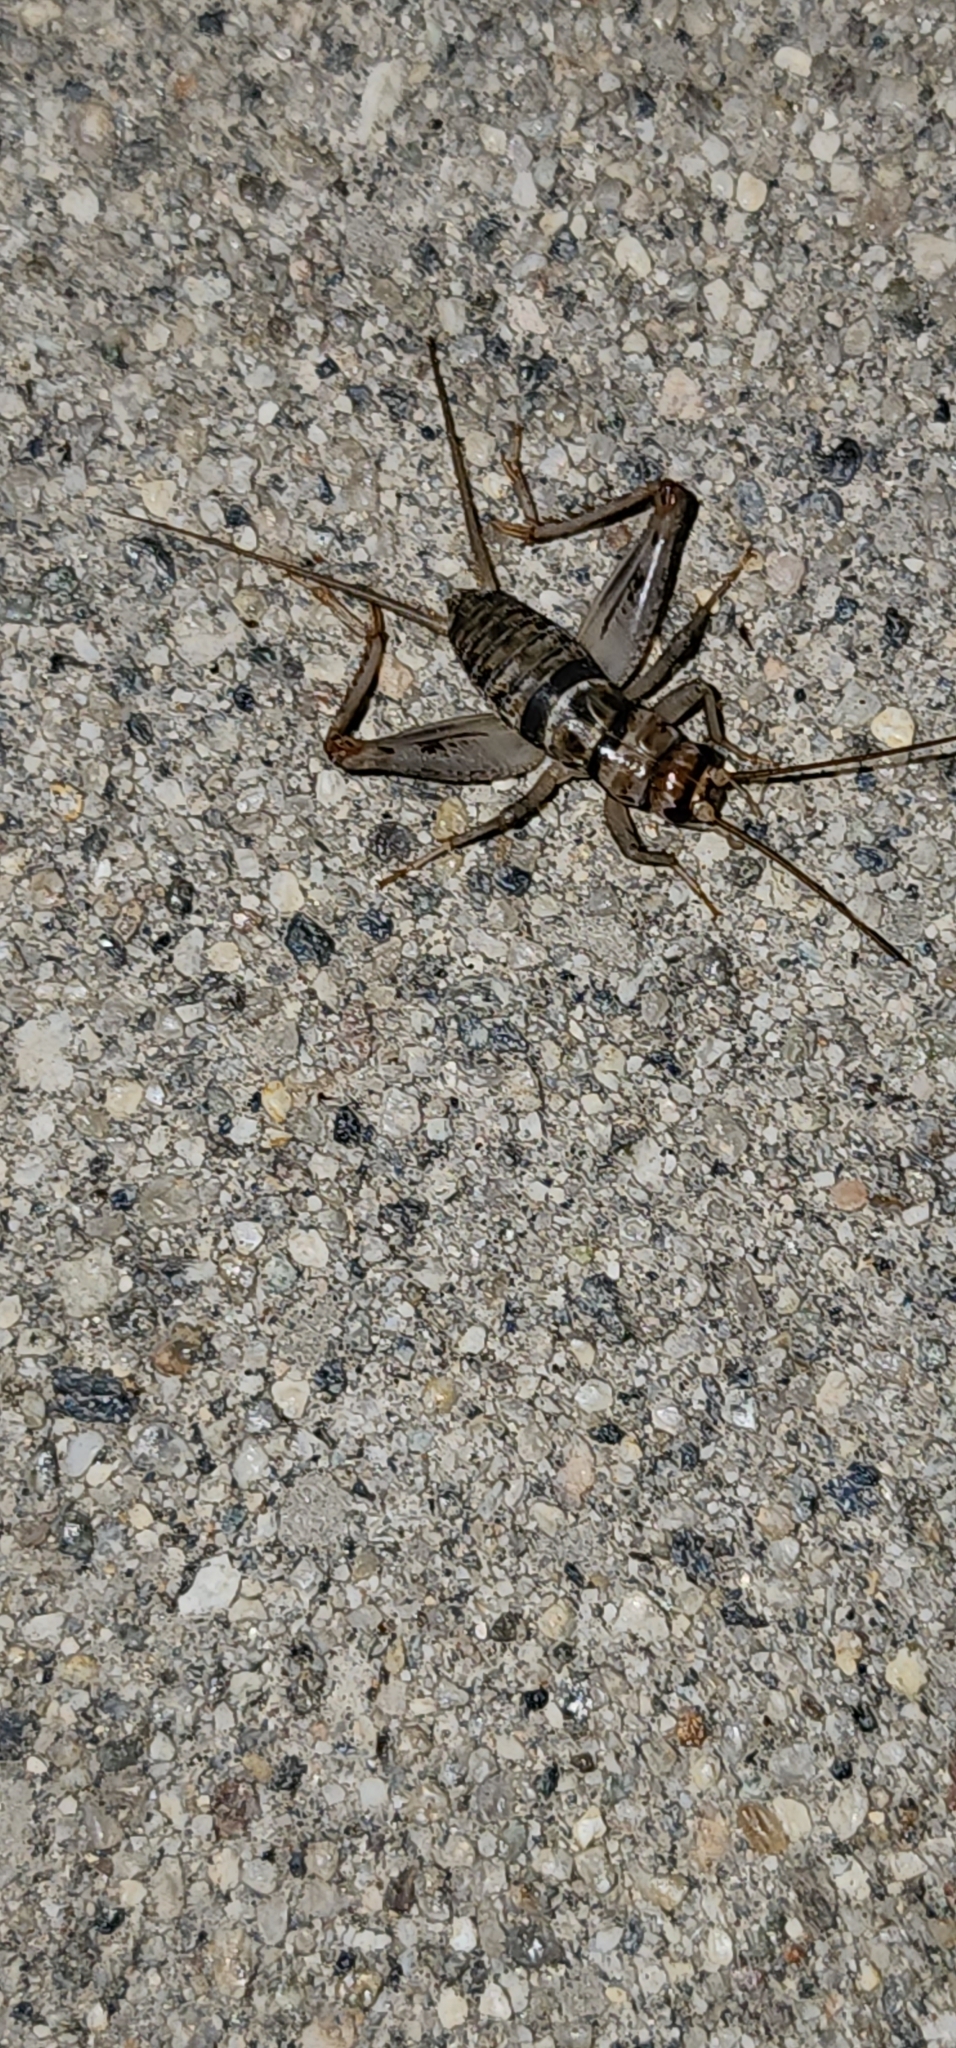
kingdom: Animalia
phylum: Arthropoda
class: Insecta
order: Orthoptera
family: Gryllidae
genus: Gryllodes
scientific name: Gryllodes sigillatus
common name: Tropical house cricket
